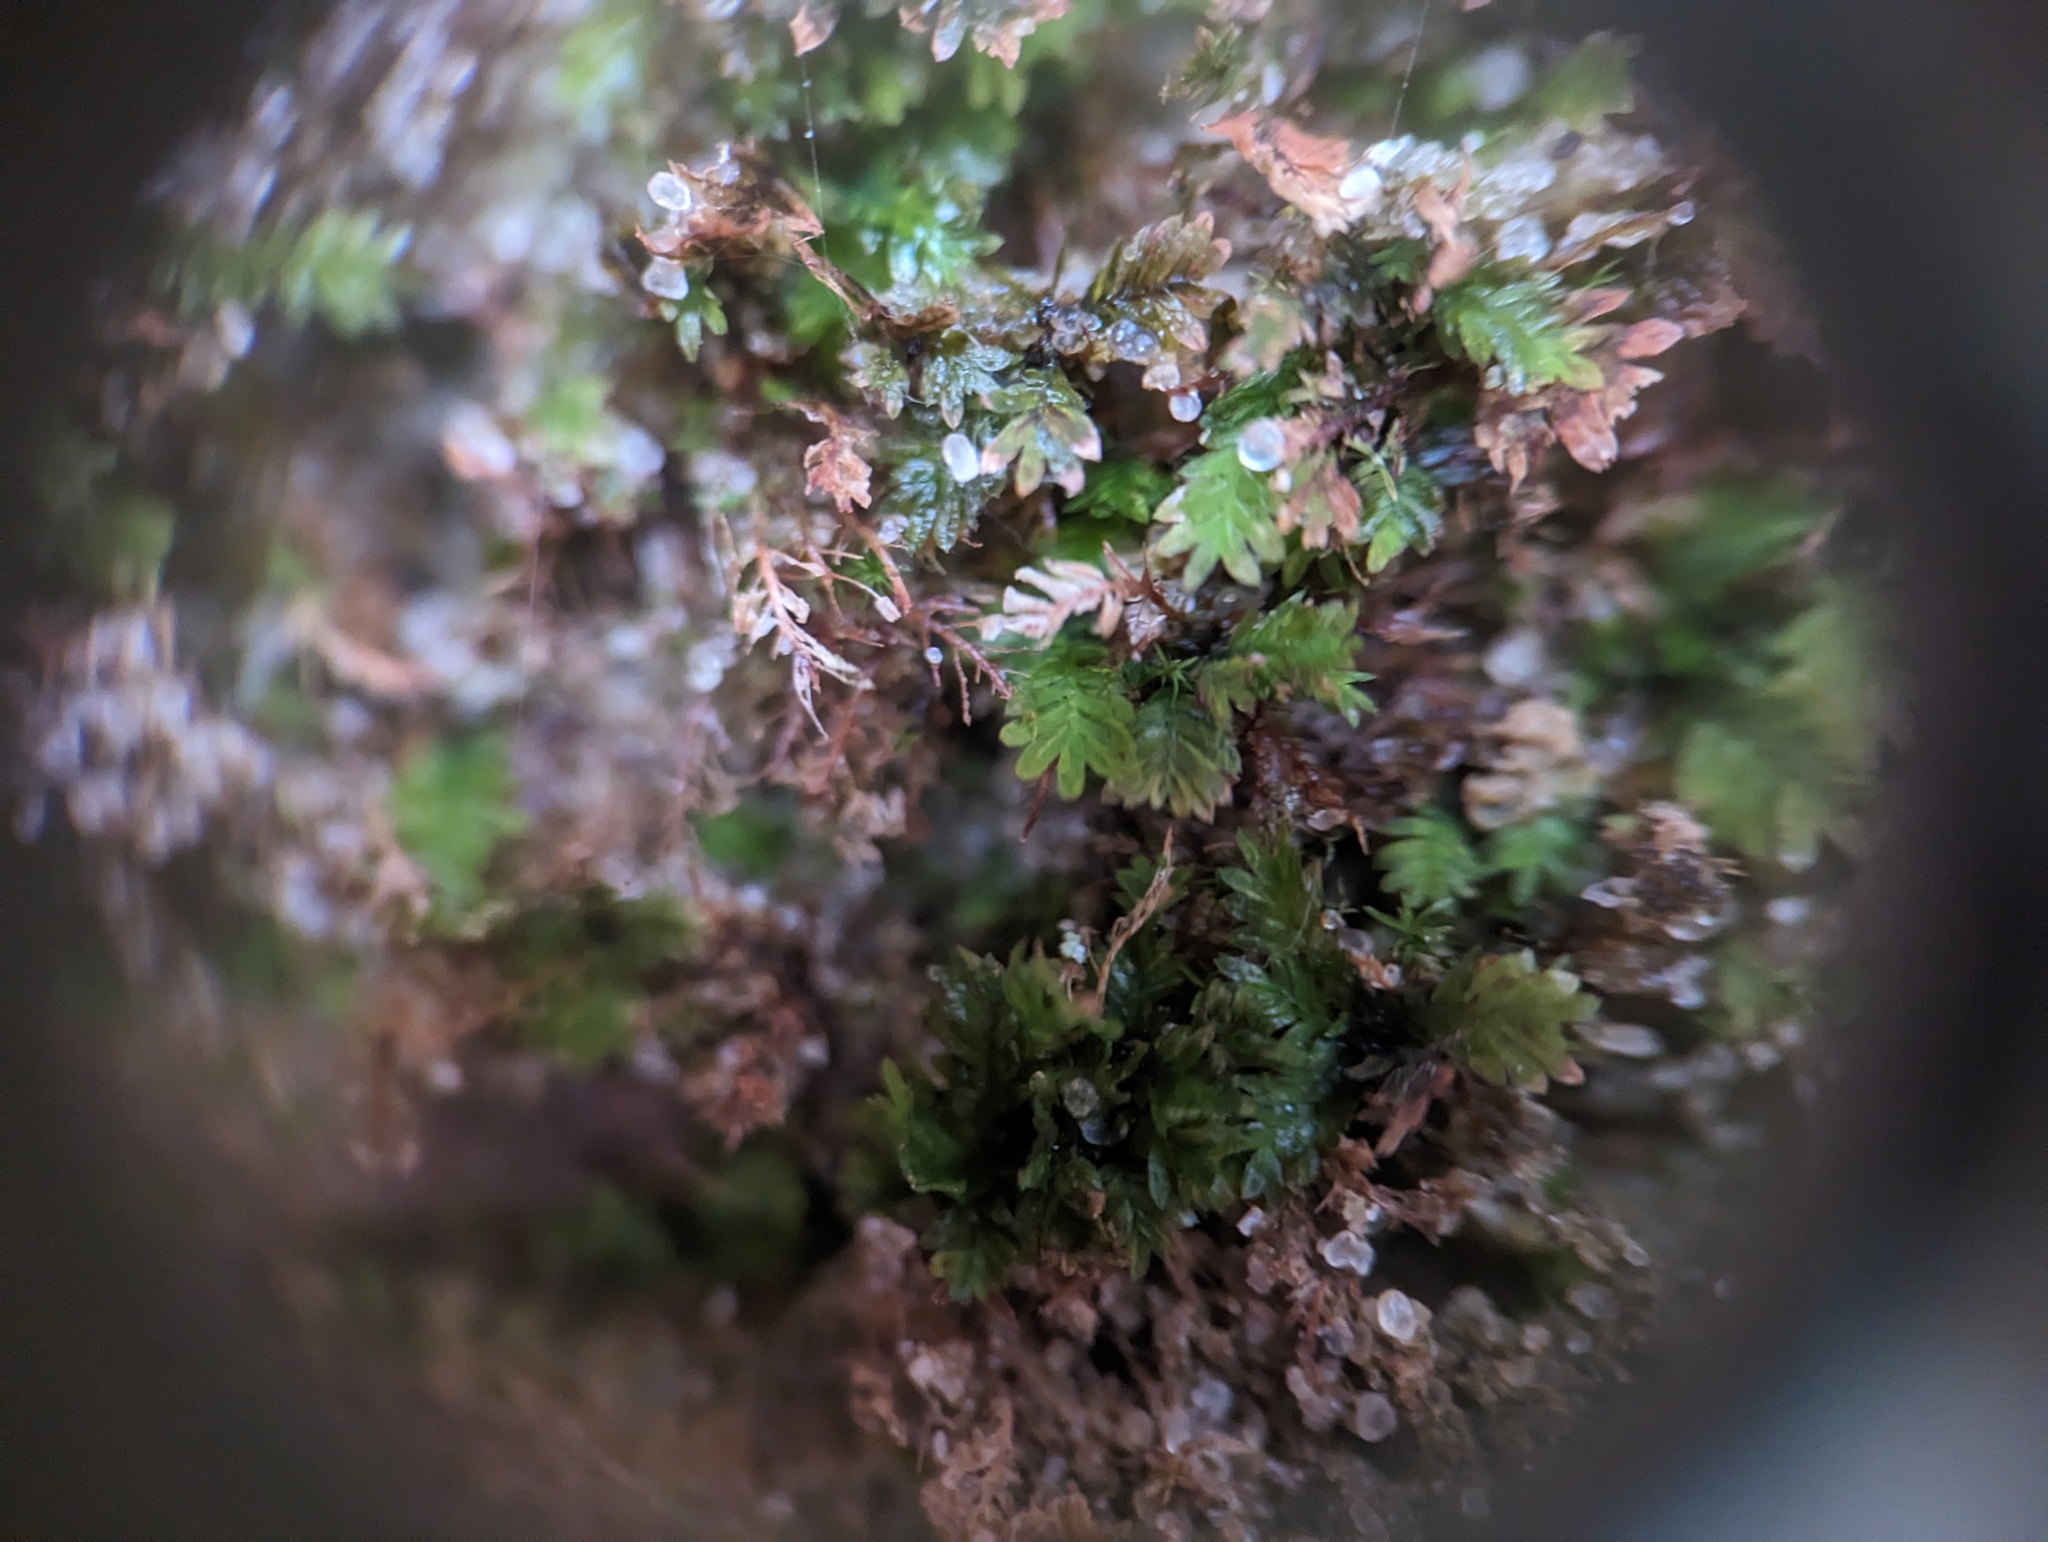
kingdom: Plantae
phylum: Bryophyta
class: Bryopsida
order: Dicranales
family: Fissidentaceae
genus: Fissidens
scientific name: Fissidens obtusifolius
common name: Blunt pocket moss
